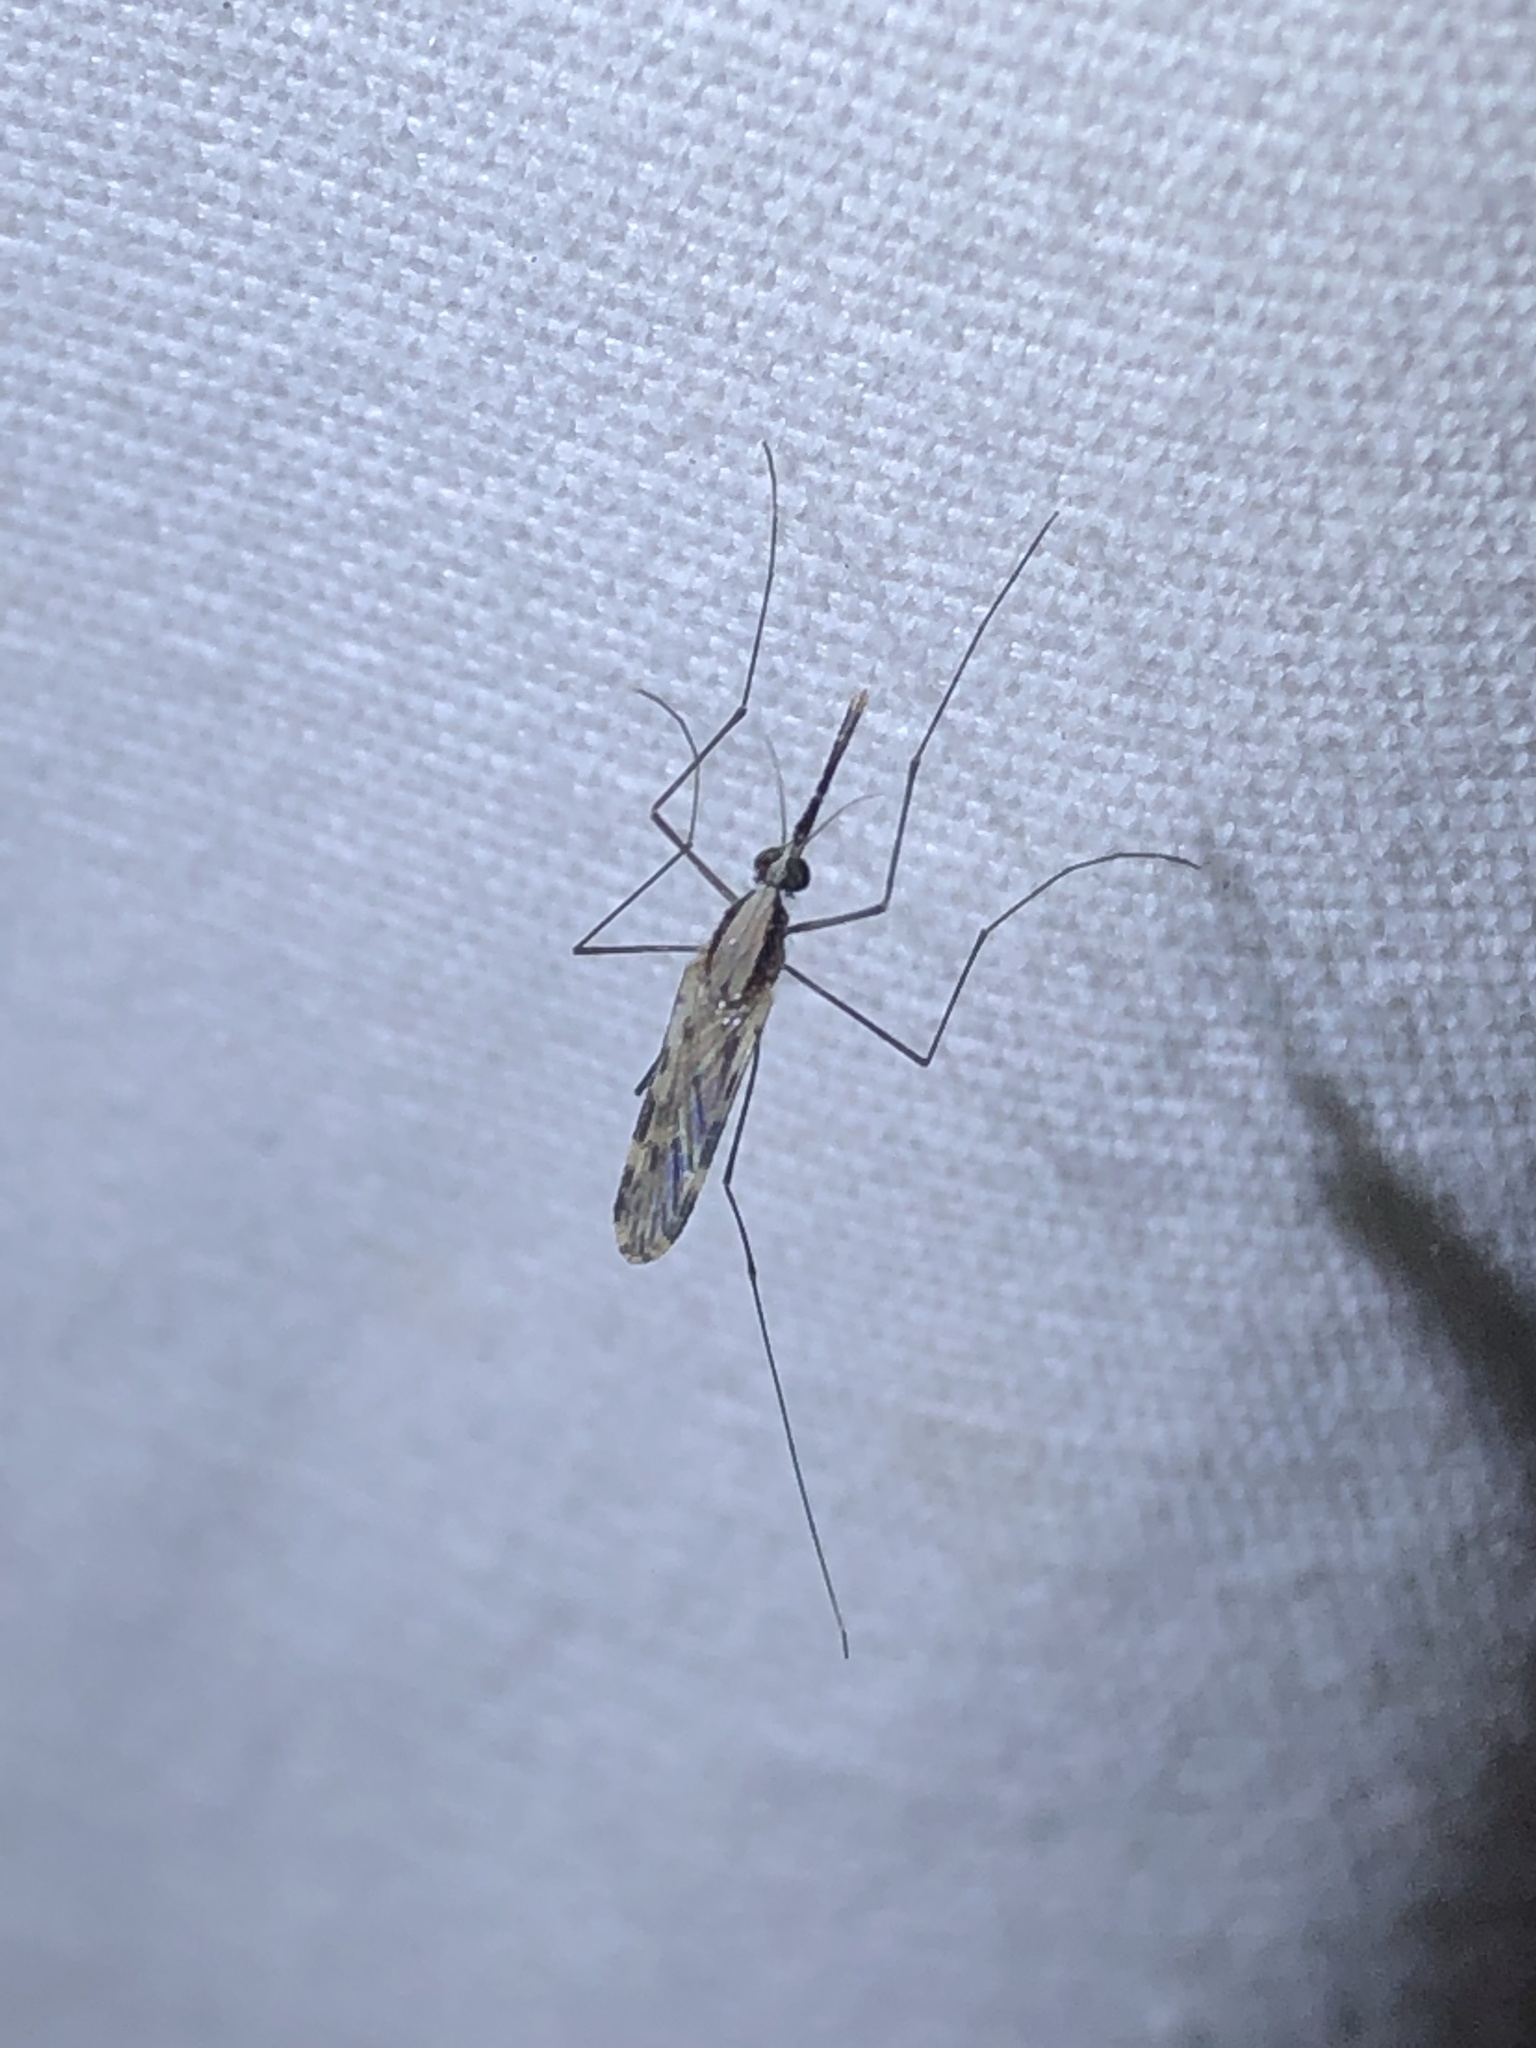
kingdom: Animalia
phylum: Arthropoda
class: Insecta
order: Diptera
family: Culicidae
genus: Anopheles
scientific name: Anopheles pseudopunctipennis
